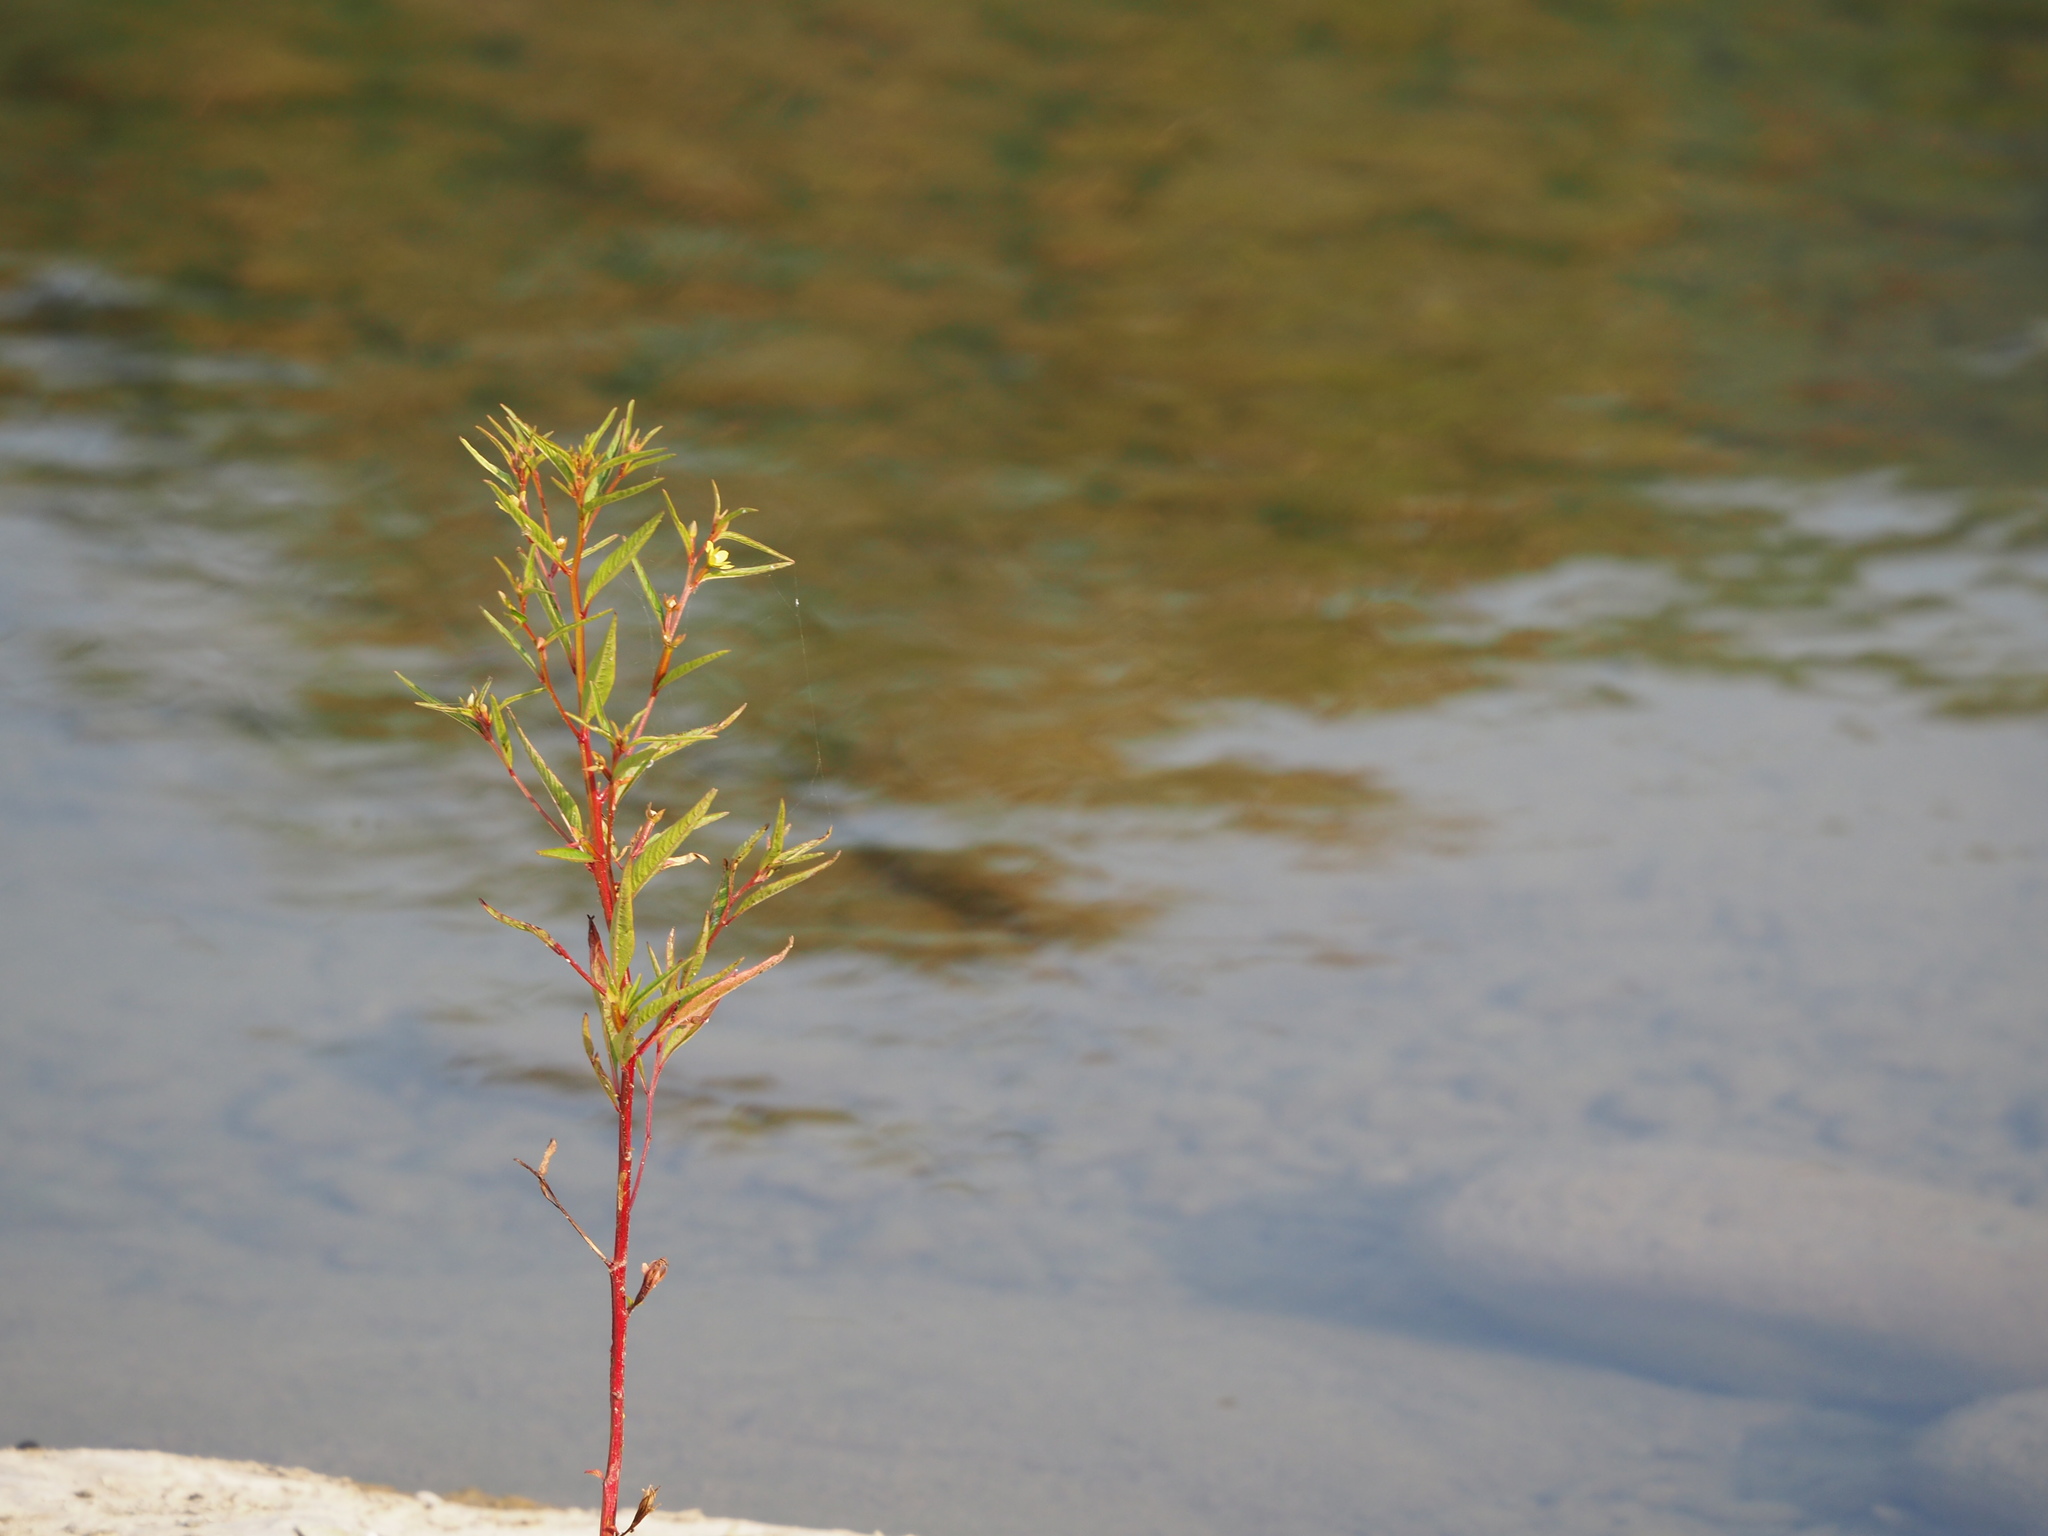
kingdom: Plantae
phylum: Tracheophyta
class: Magnoliopsida
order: Myrtales
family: Onagraceae
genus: Ludwigia
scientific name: Ludwigia erecta
